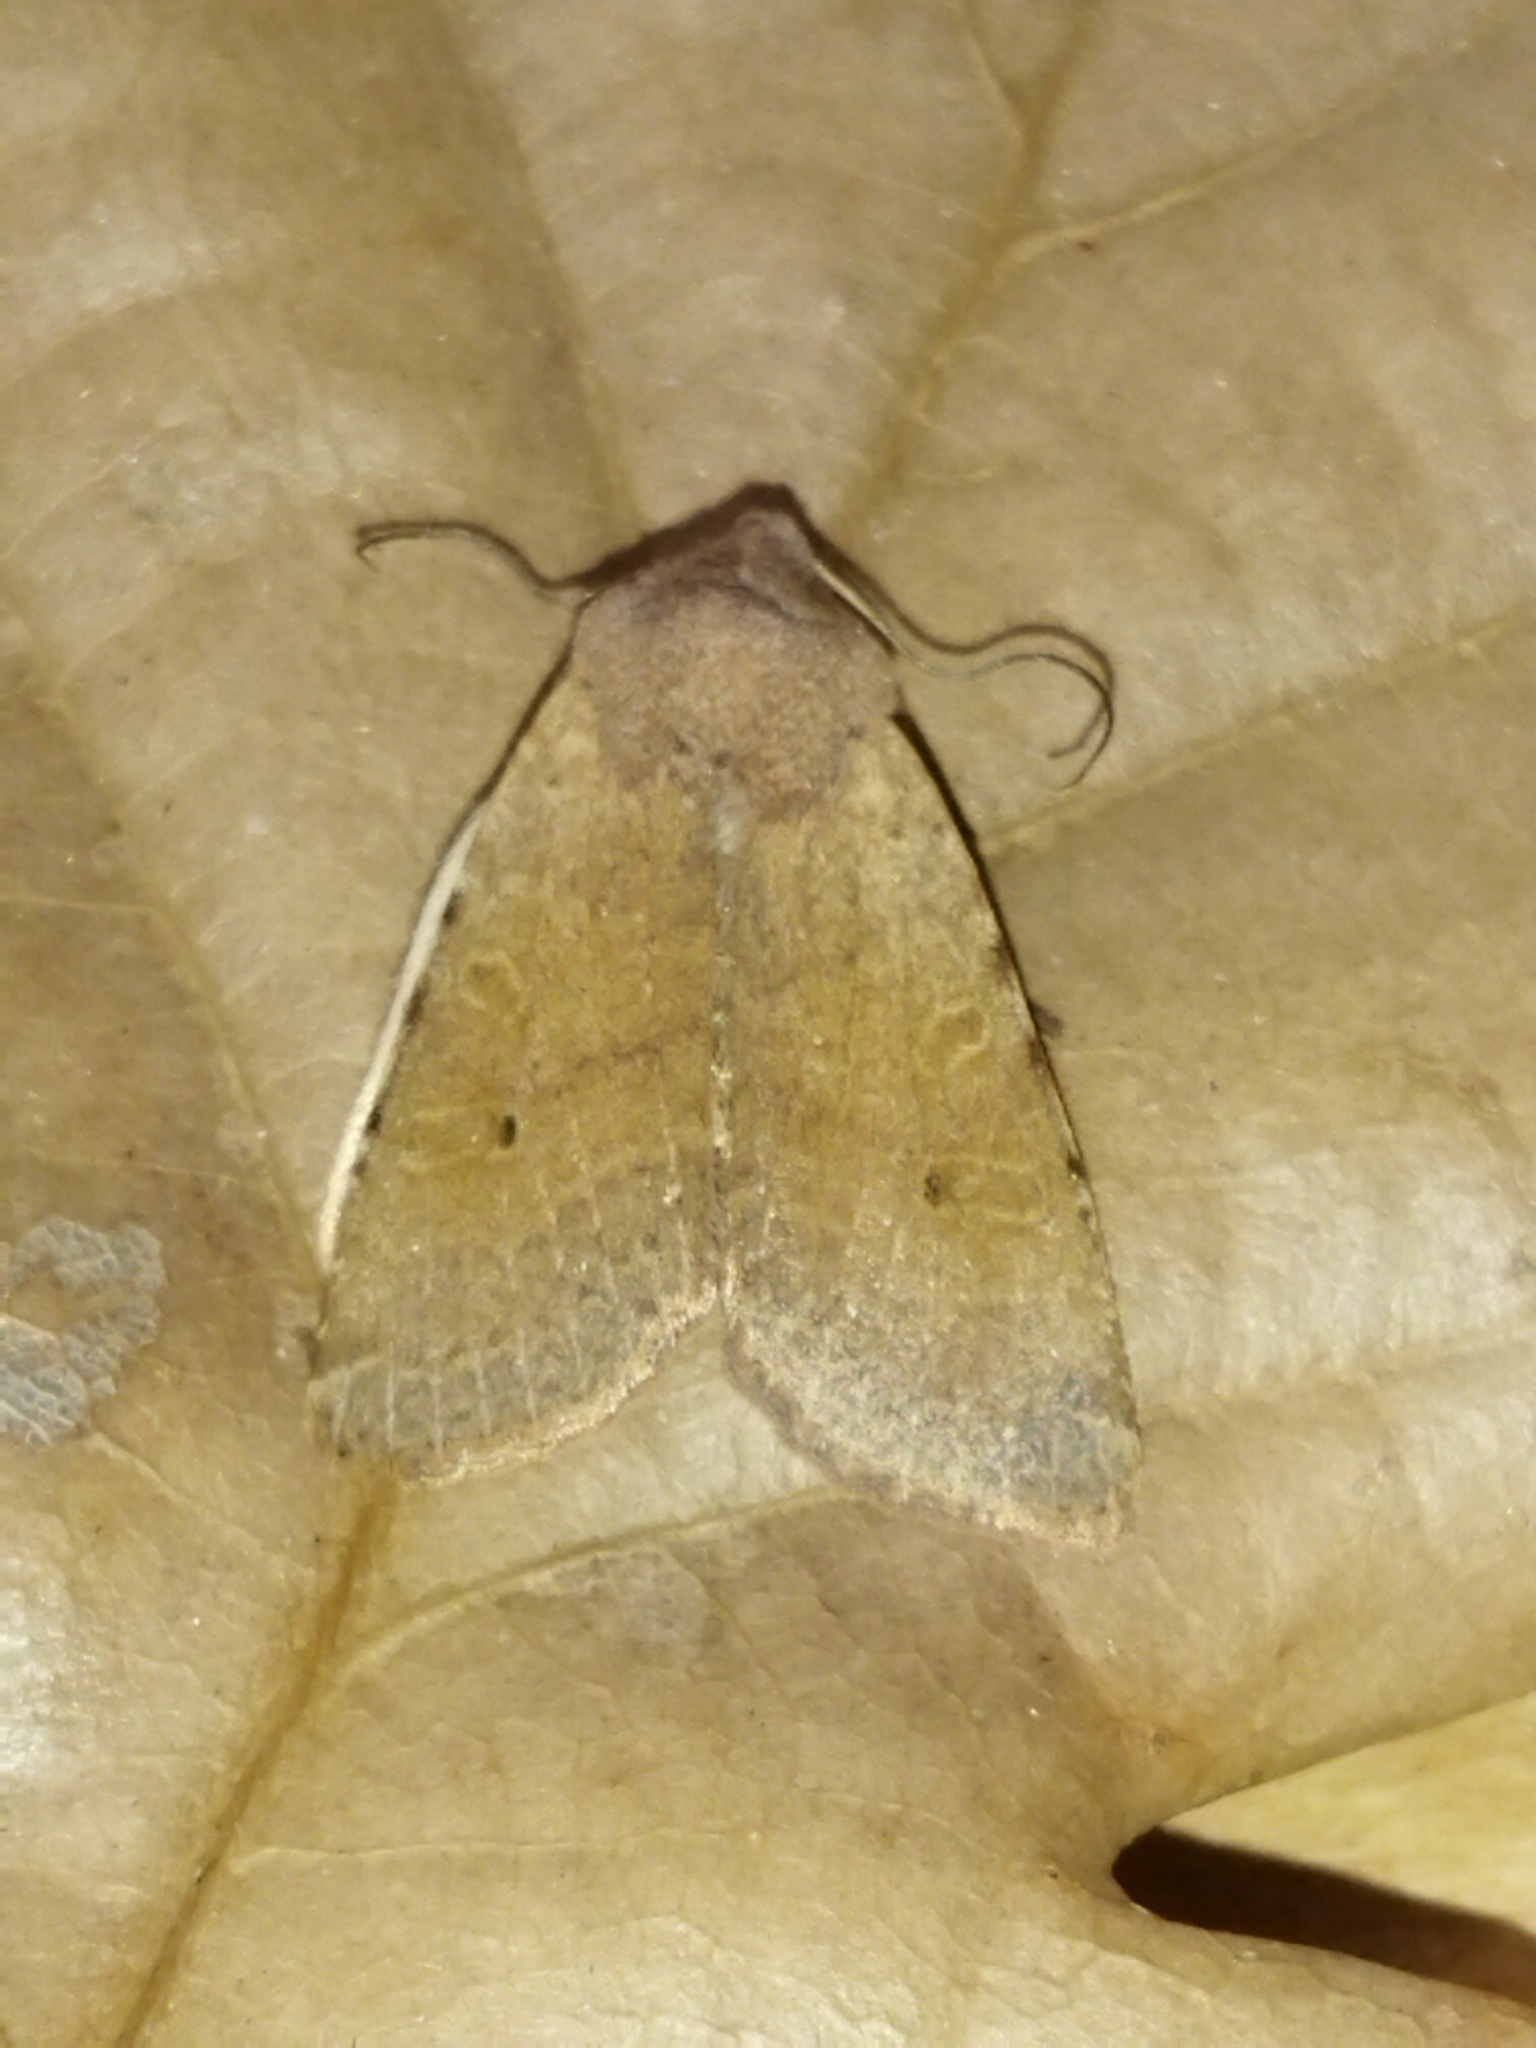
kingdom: Animalia
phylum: Arthropoda
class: Insecta
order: Lepidoptera
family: Noctuidae
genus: Agrochola
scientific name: Agrochola rupicapra
